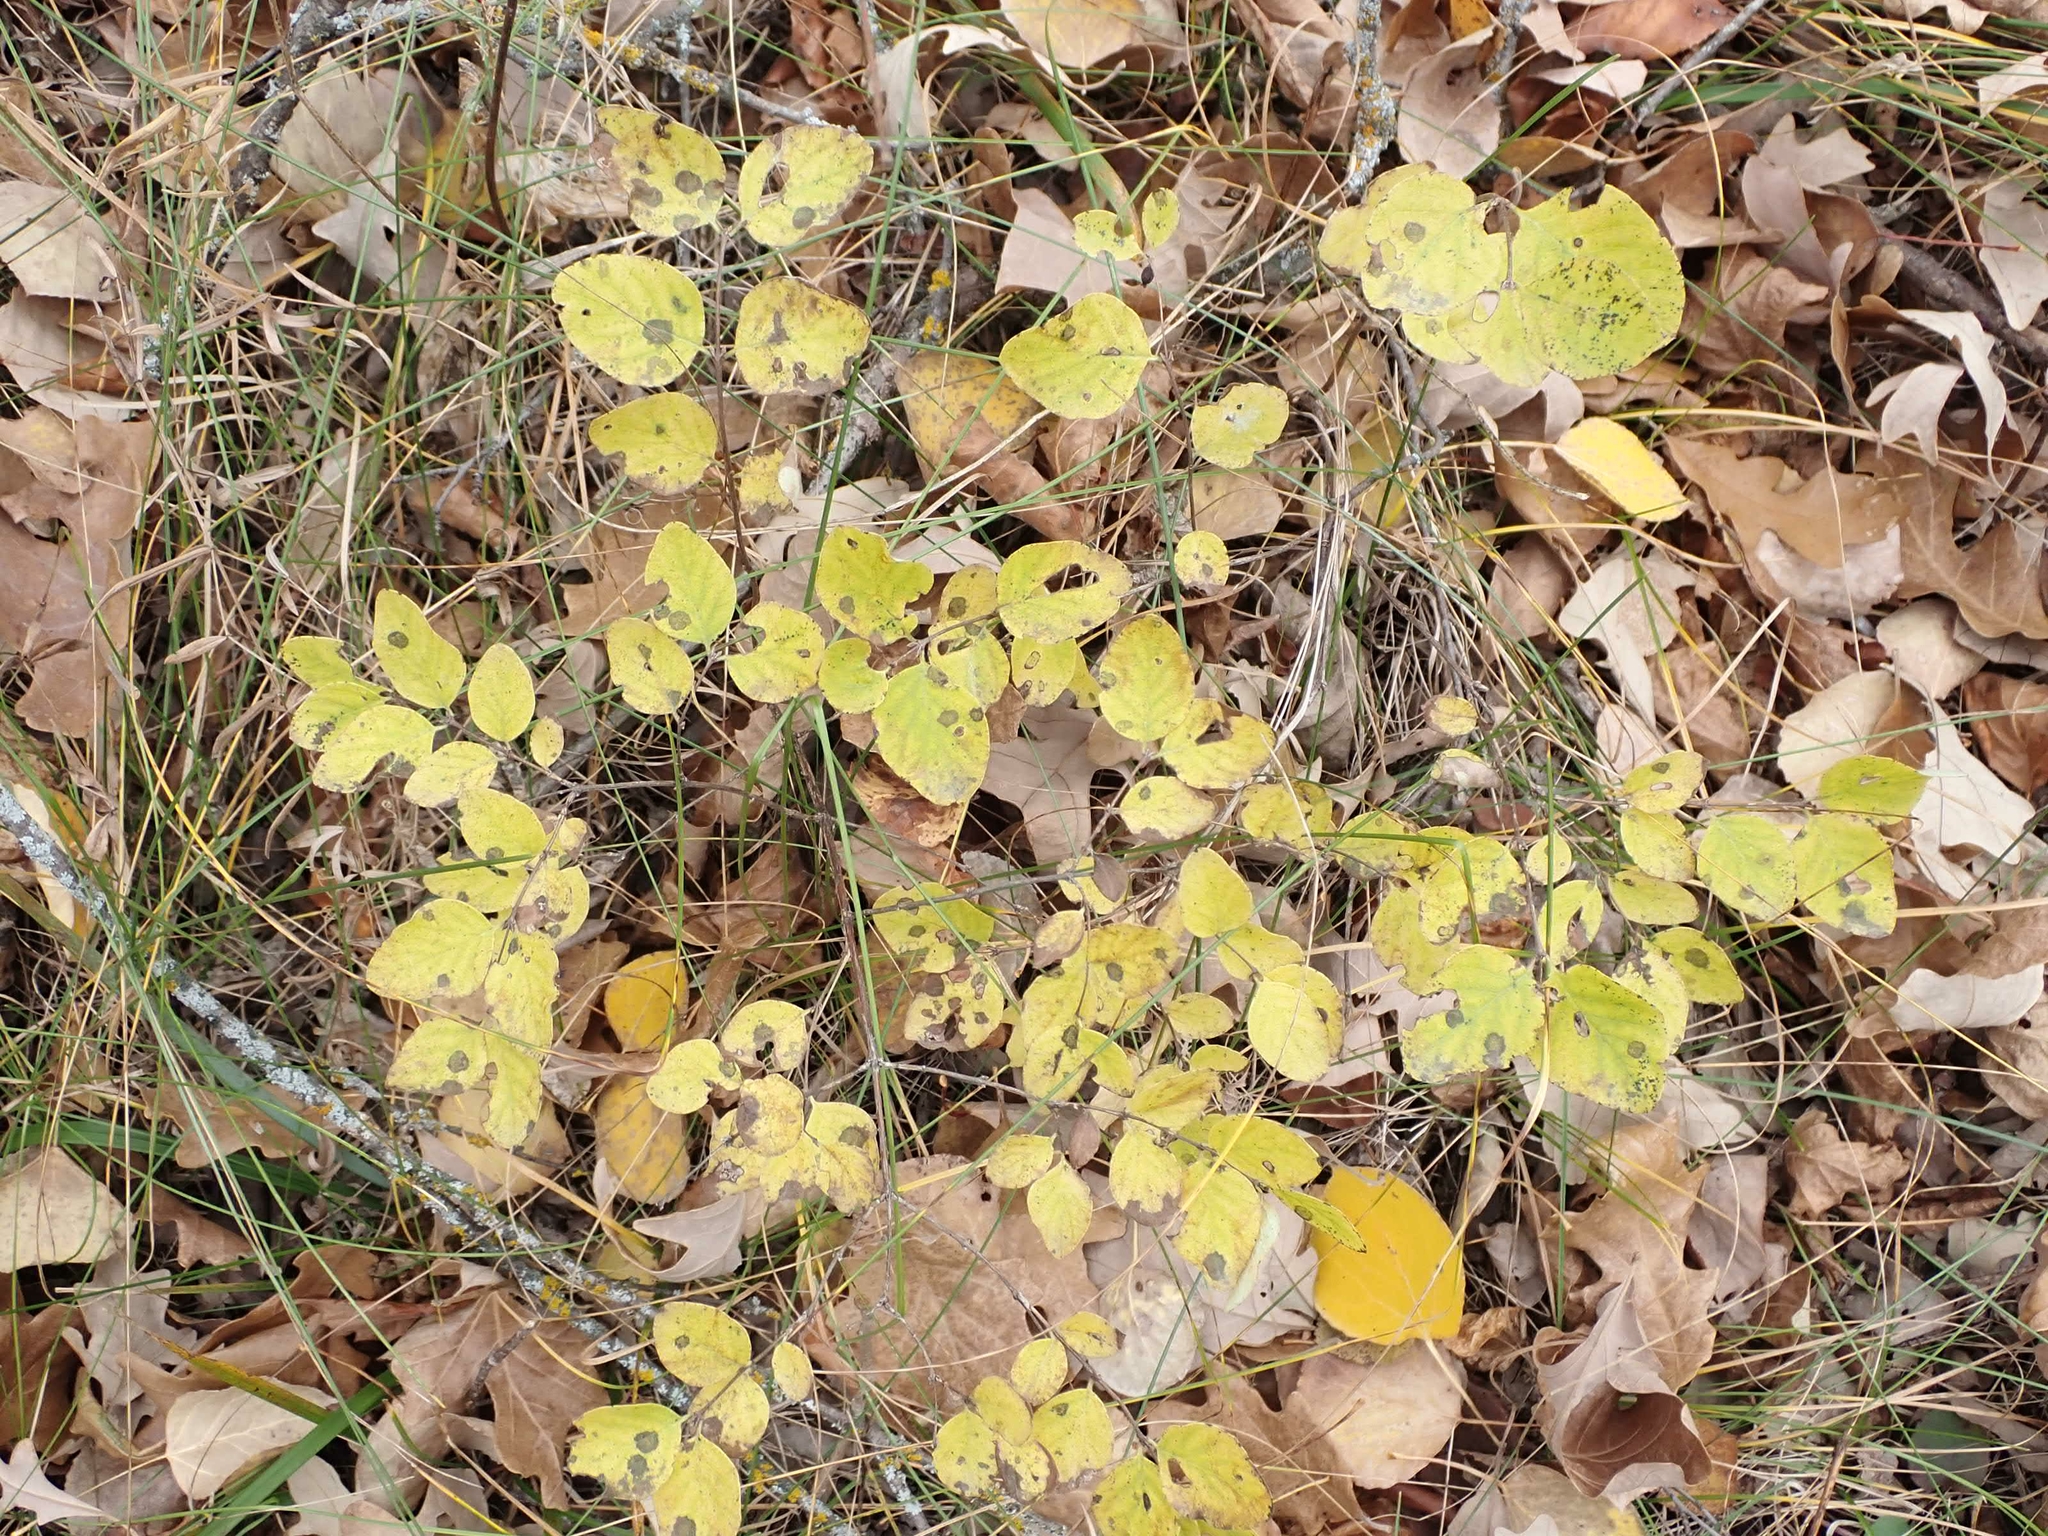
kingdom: Plantae
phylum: Tracheophyta
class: Magnoliopsida
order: Dipsacales
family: Caprifoliaceae
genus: Symphoricarpos
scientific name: Symphoricarpos occidentalis
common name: Wolfberry
